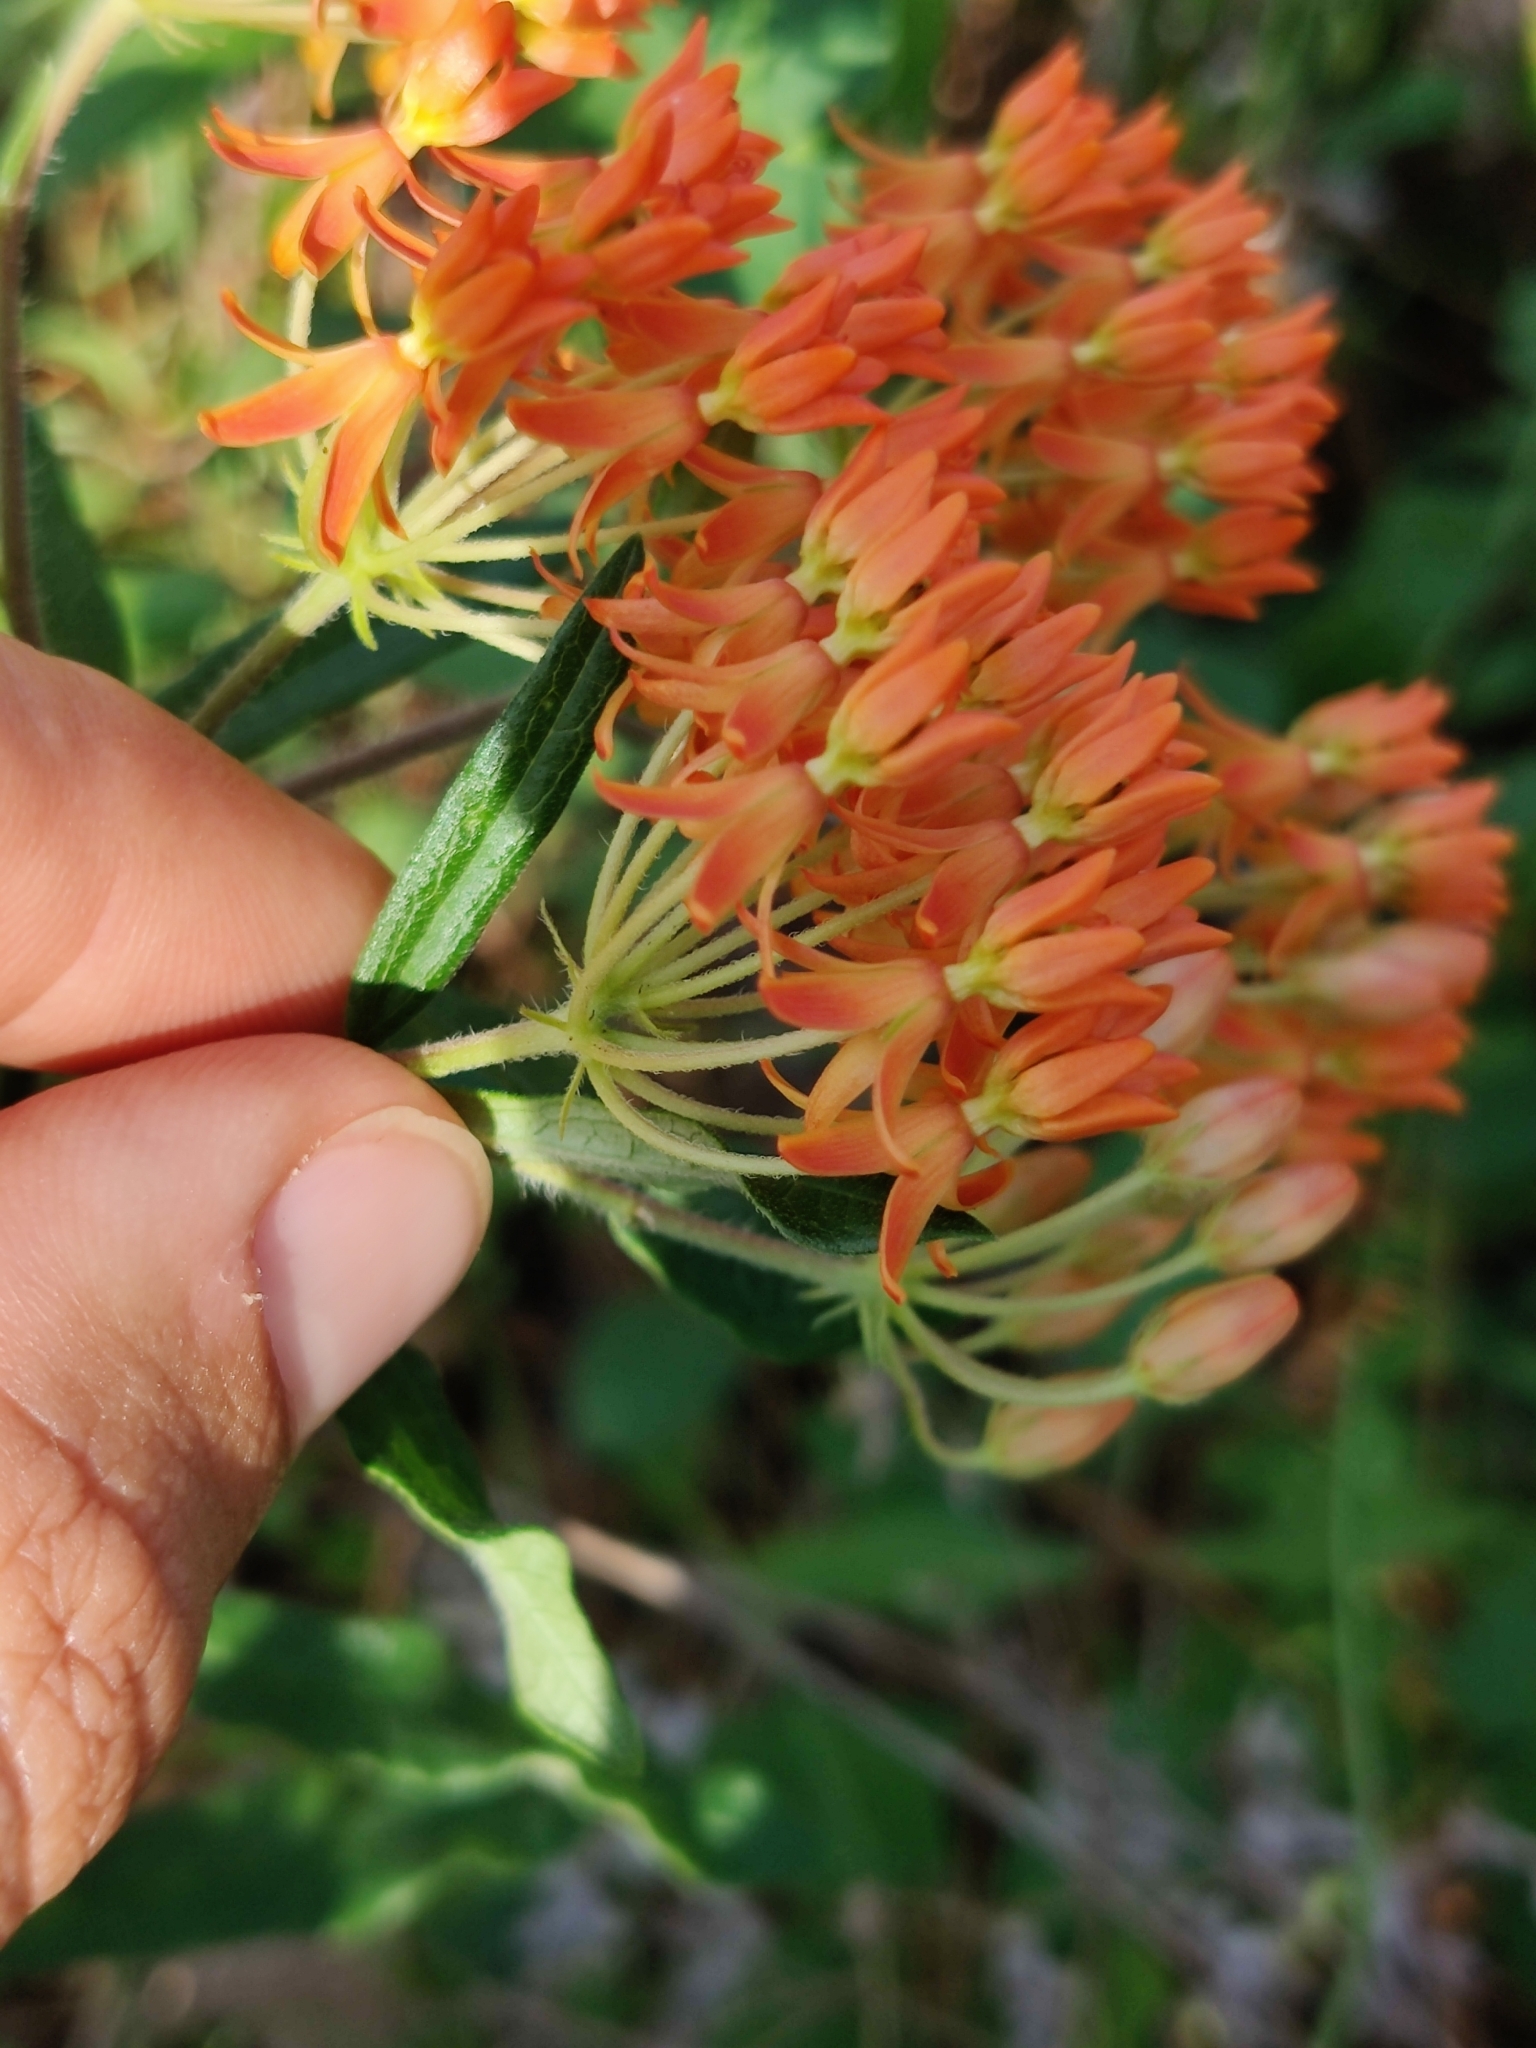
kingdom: Plantae
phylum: Tracheophyta
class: Magnoliopsida
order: Gentianales
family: Apocynaceae
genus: Asclepias
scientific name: Asclepias tuberosa
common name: Butterfly milkweed
